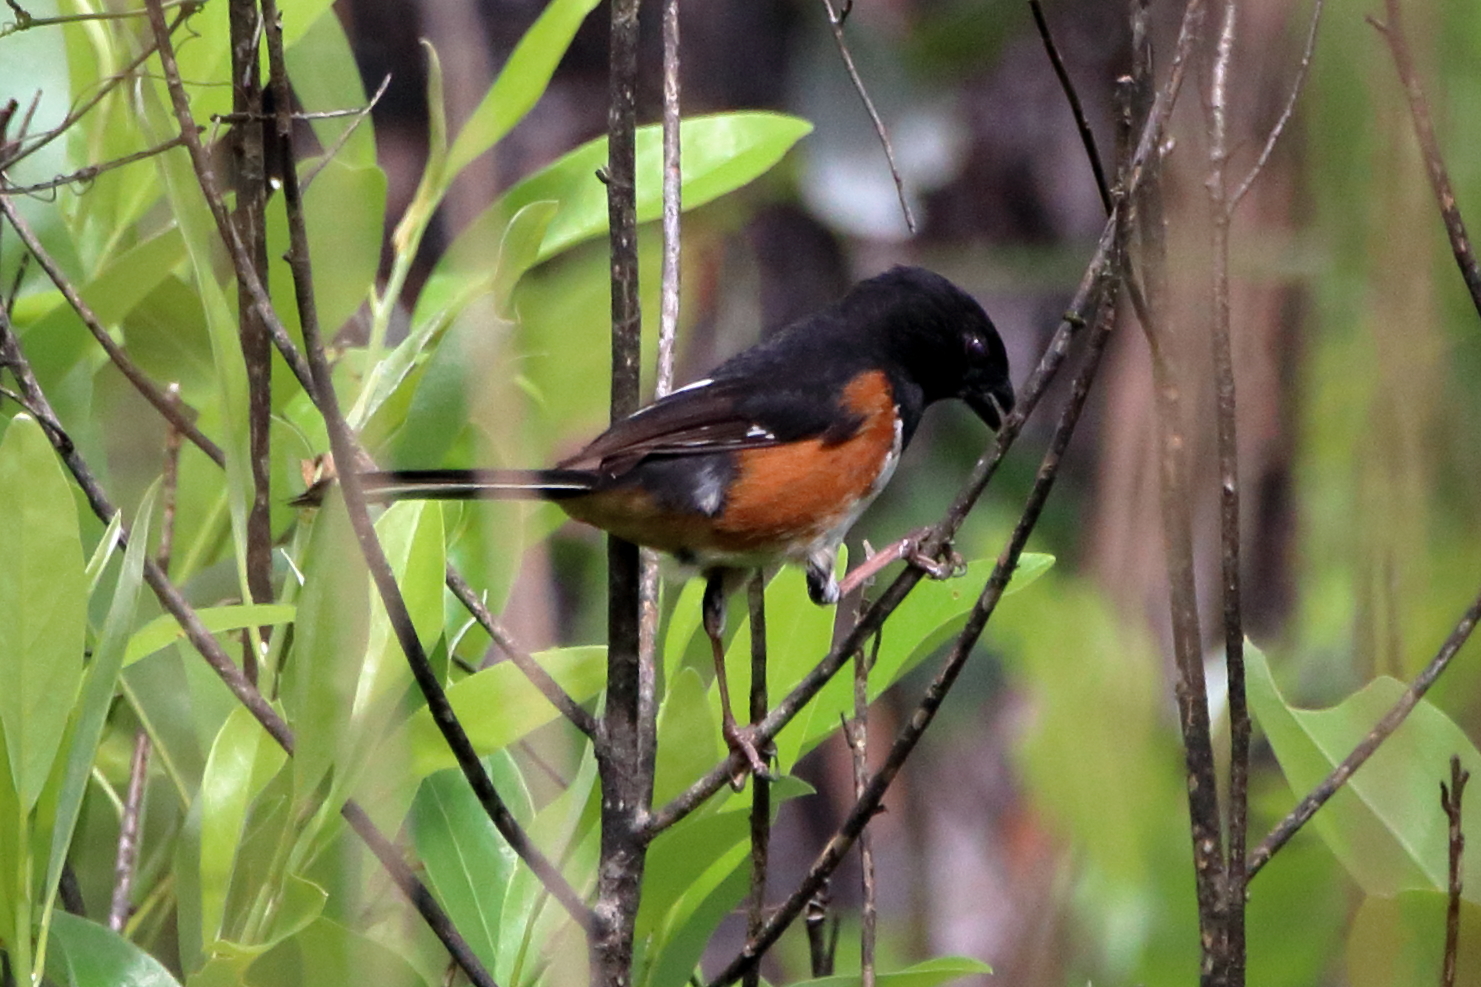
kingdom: Animalia
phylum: Chordata
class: Aves
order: Passeriformes
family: Passerellidae
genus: Pipilo
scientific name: Pipilo erythrophthalmus
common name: Eastern towhee
